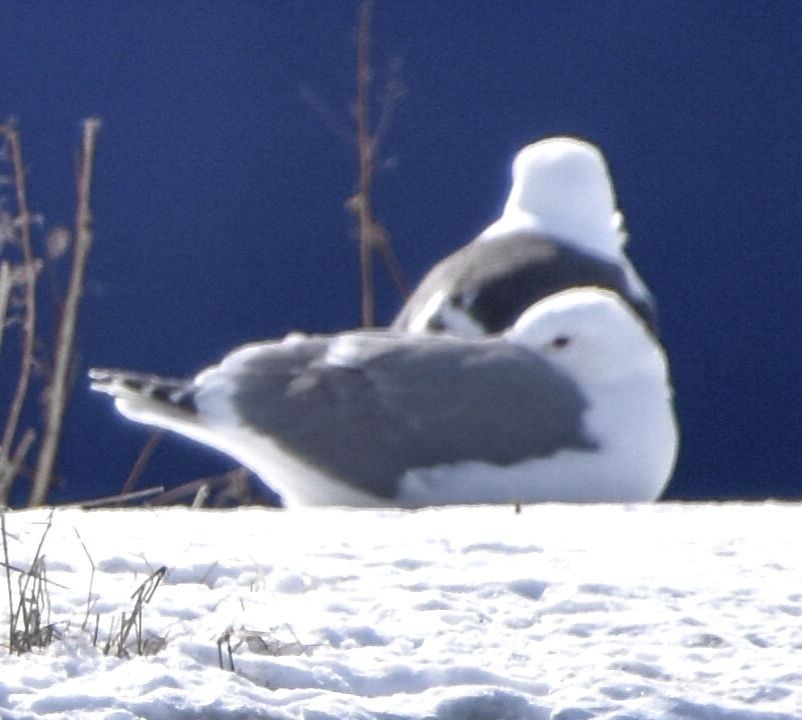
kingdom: Animalia
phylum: Chordata
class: Aves
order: Charadriiformes
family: Laridae
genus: Larus
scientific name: Larus vegae
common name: Vega gull
